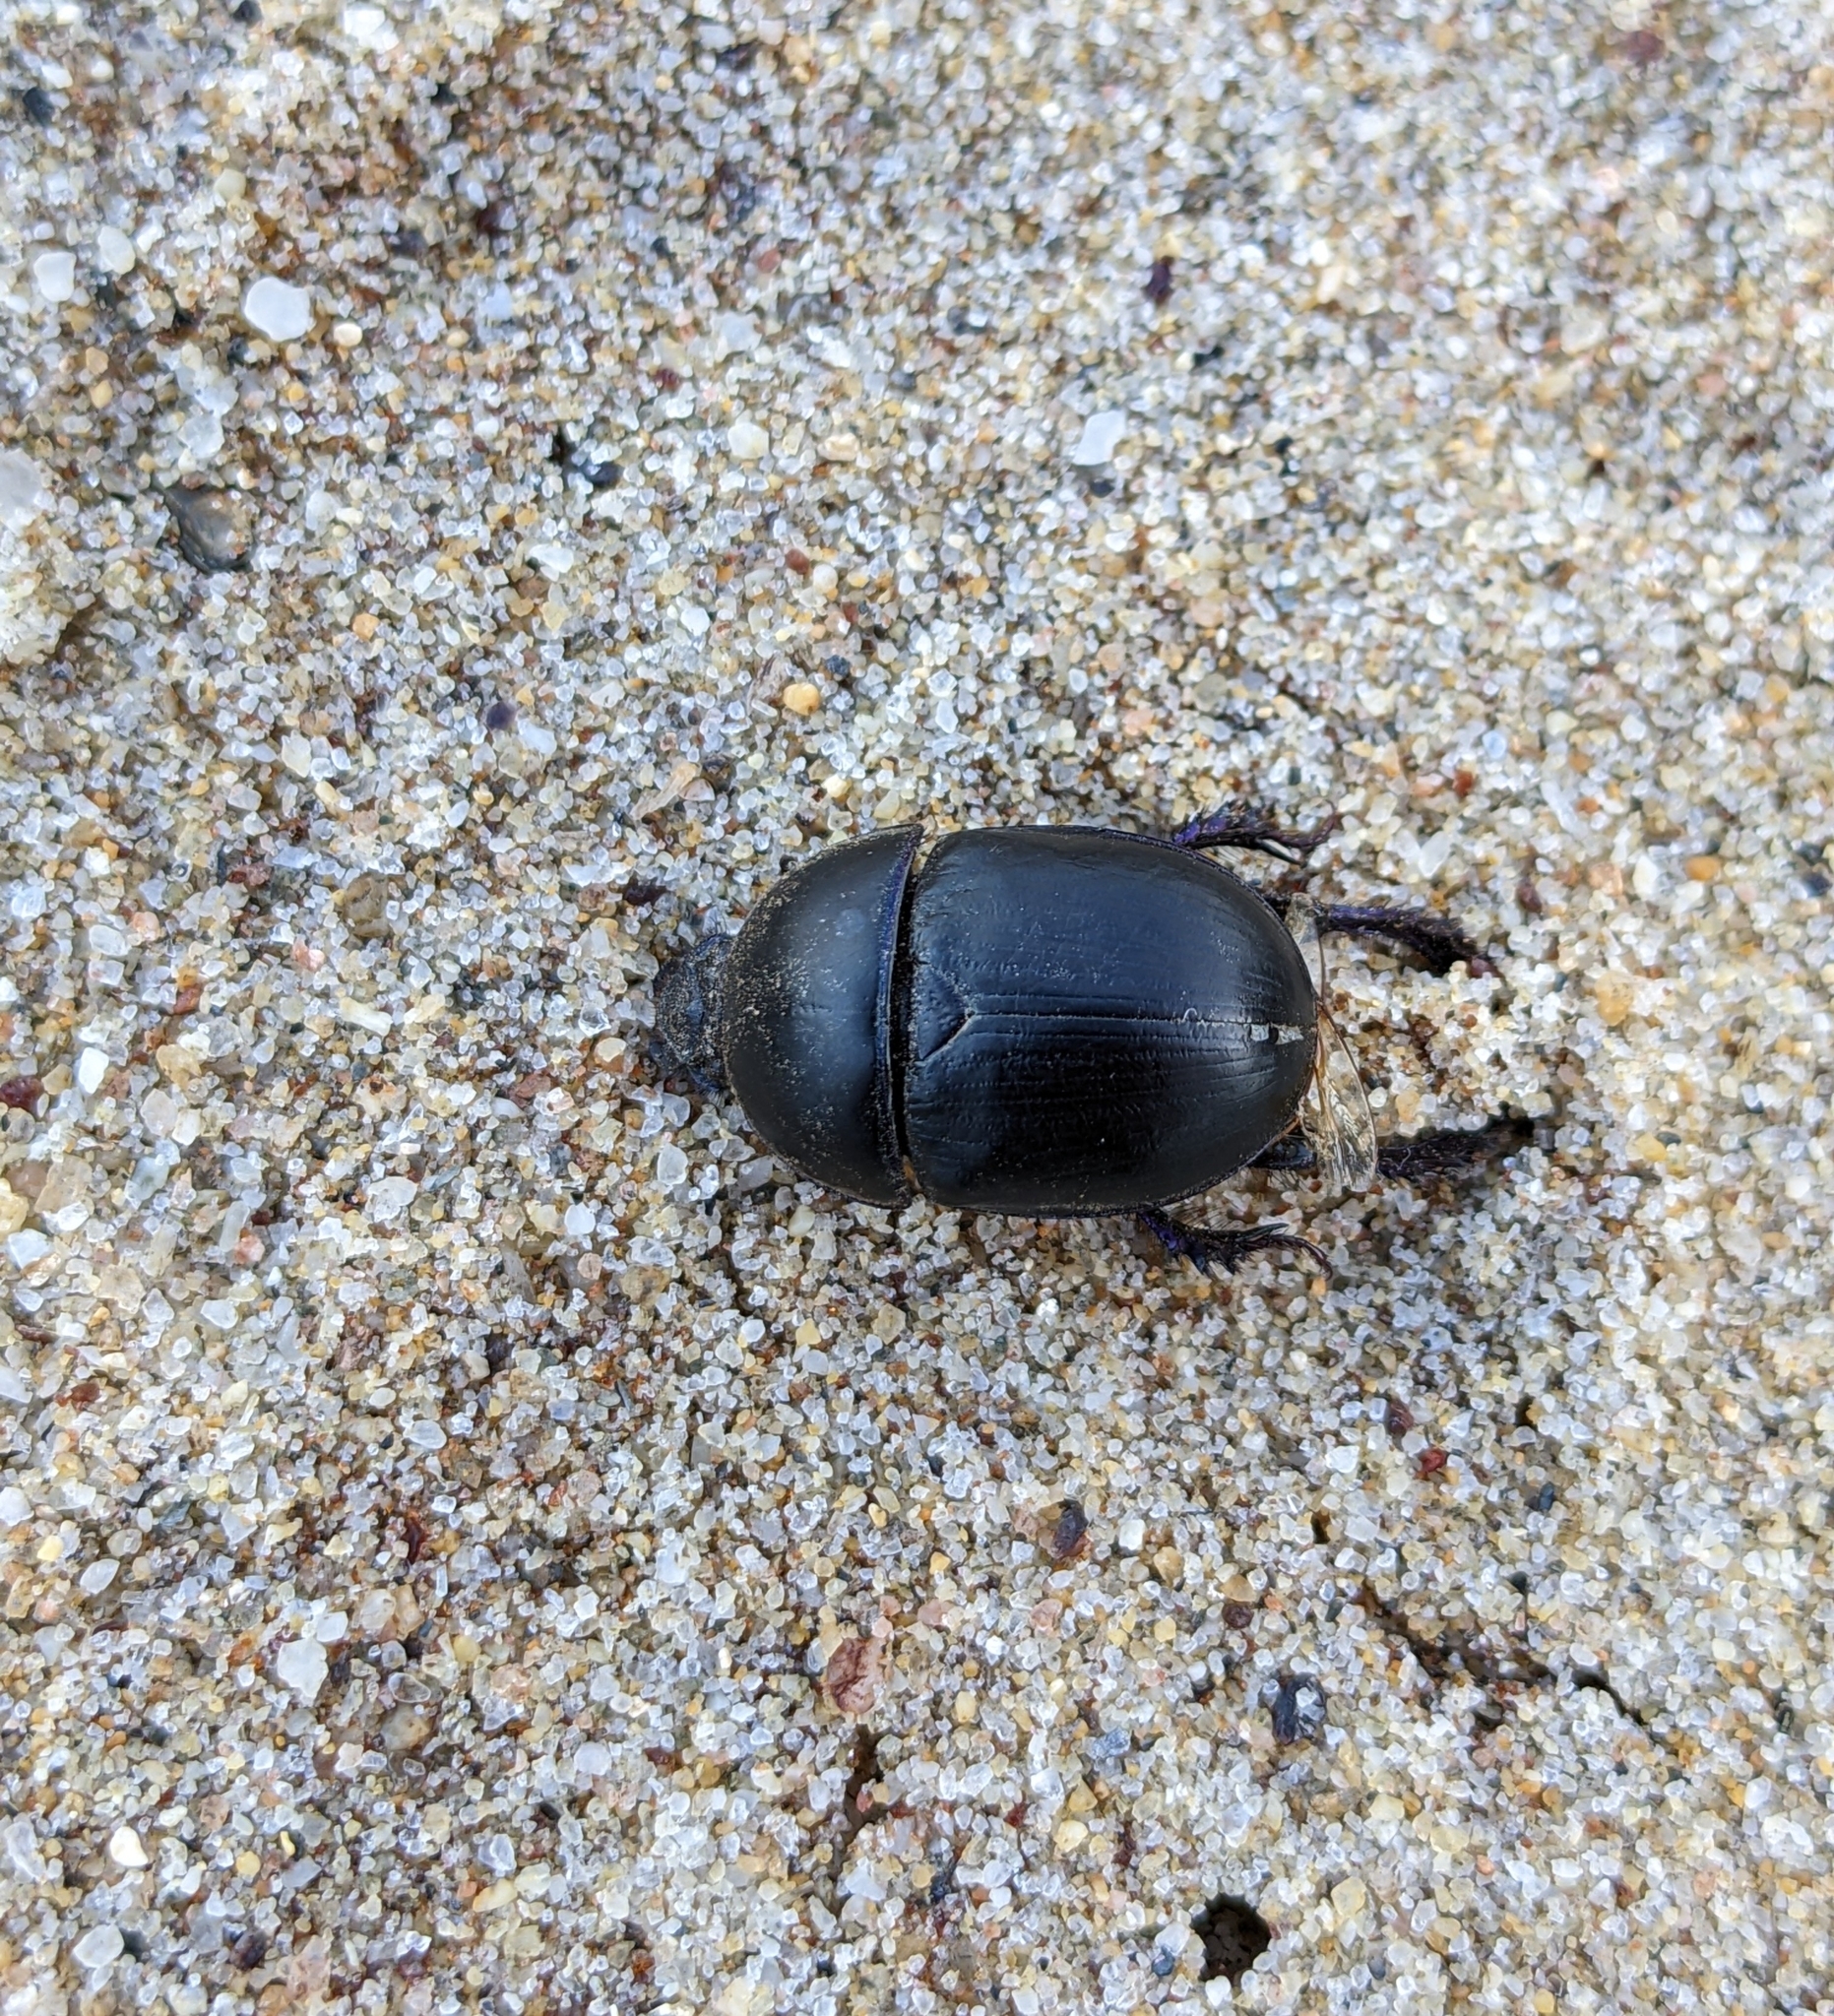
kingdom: Animalia
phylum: Arthropoda
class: Insecta
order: Coleoptera
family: Geotrupidae
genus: Sericotrupes
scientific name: Sericotrupes niger
